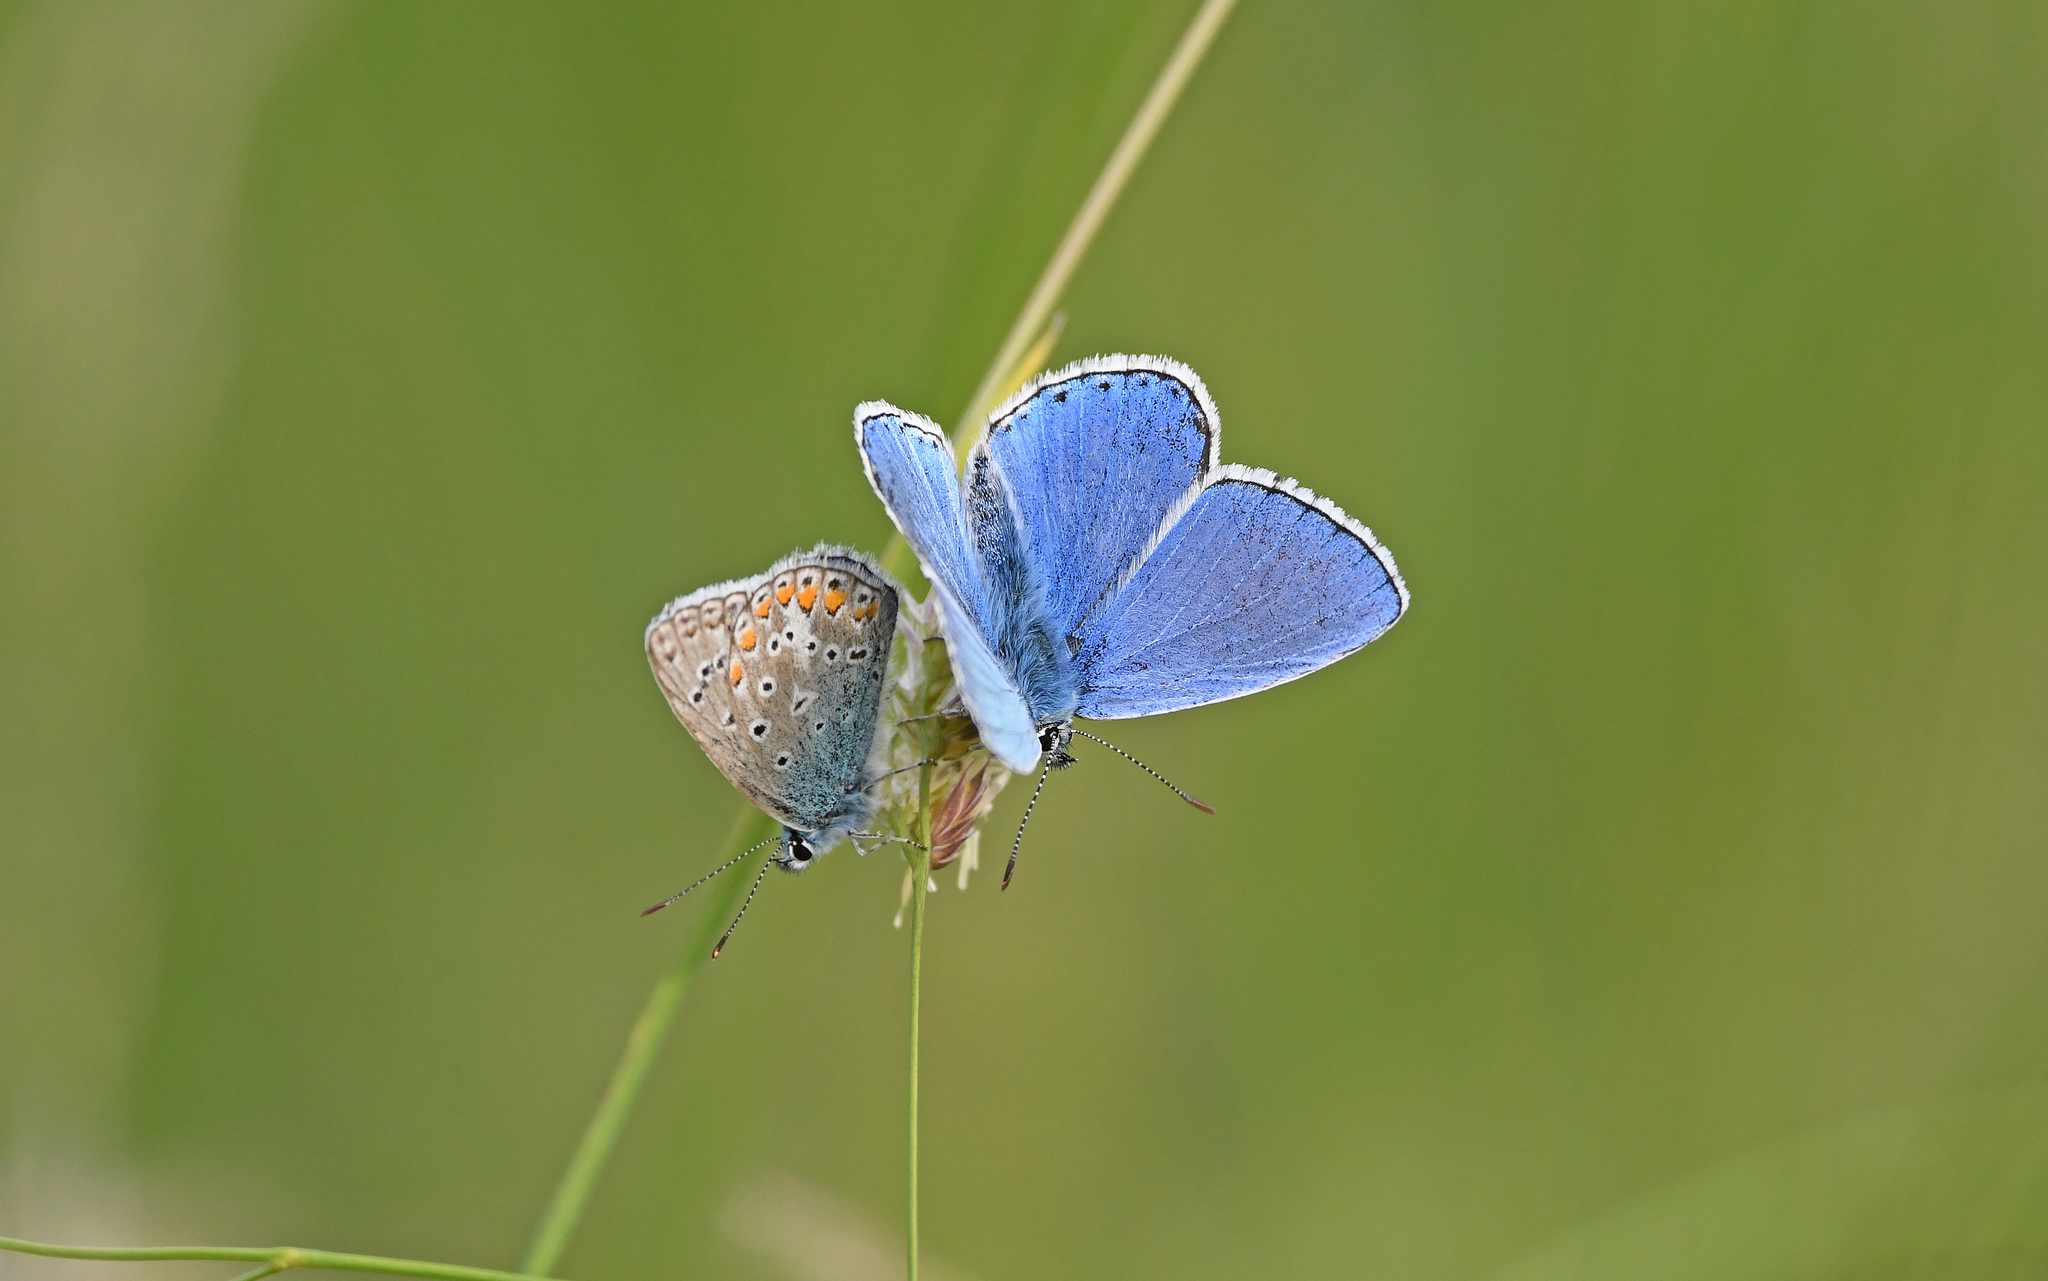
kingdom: Animalia
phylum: Arthropoda
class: Insecta
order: Lepidoptera
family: Lycaenidae
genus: Lysandra
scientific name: Lysandra bellargus
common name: Adonis blue
